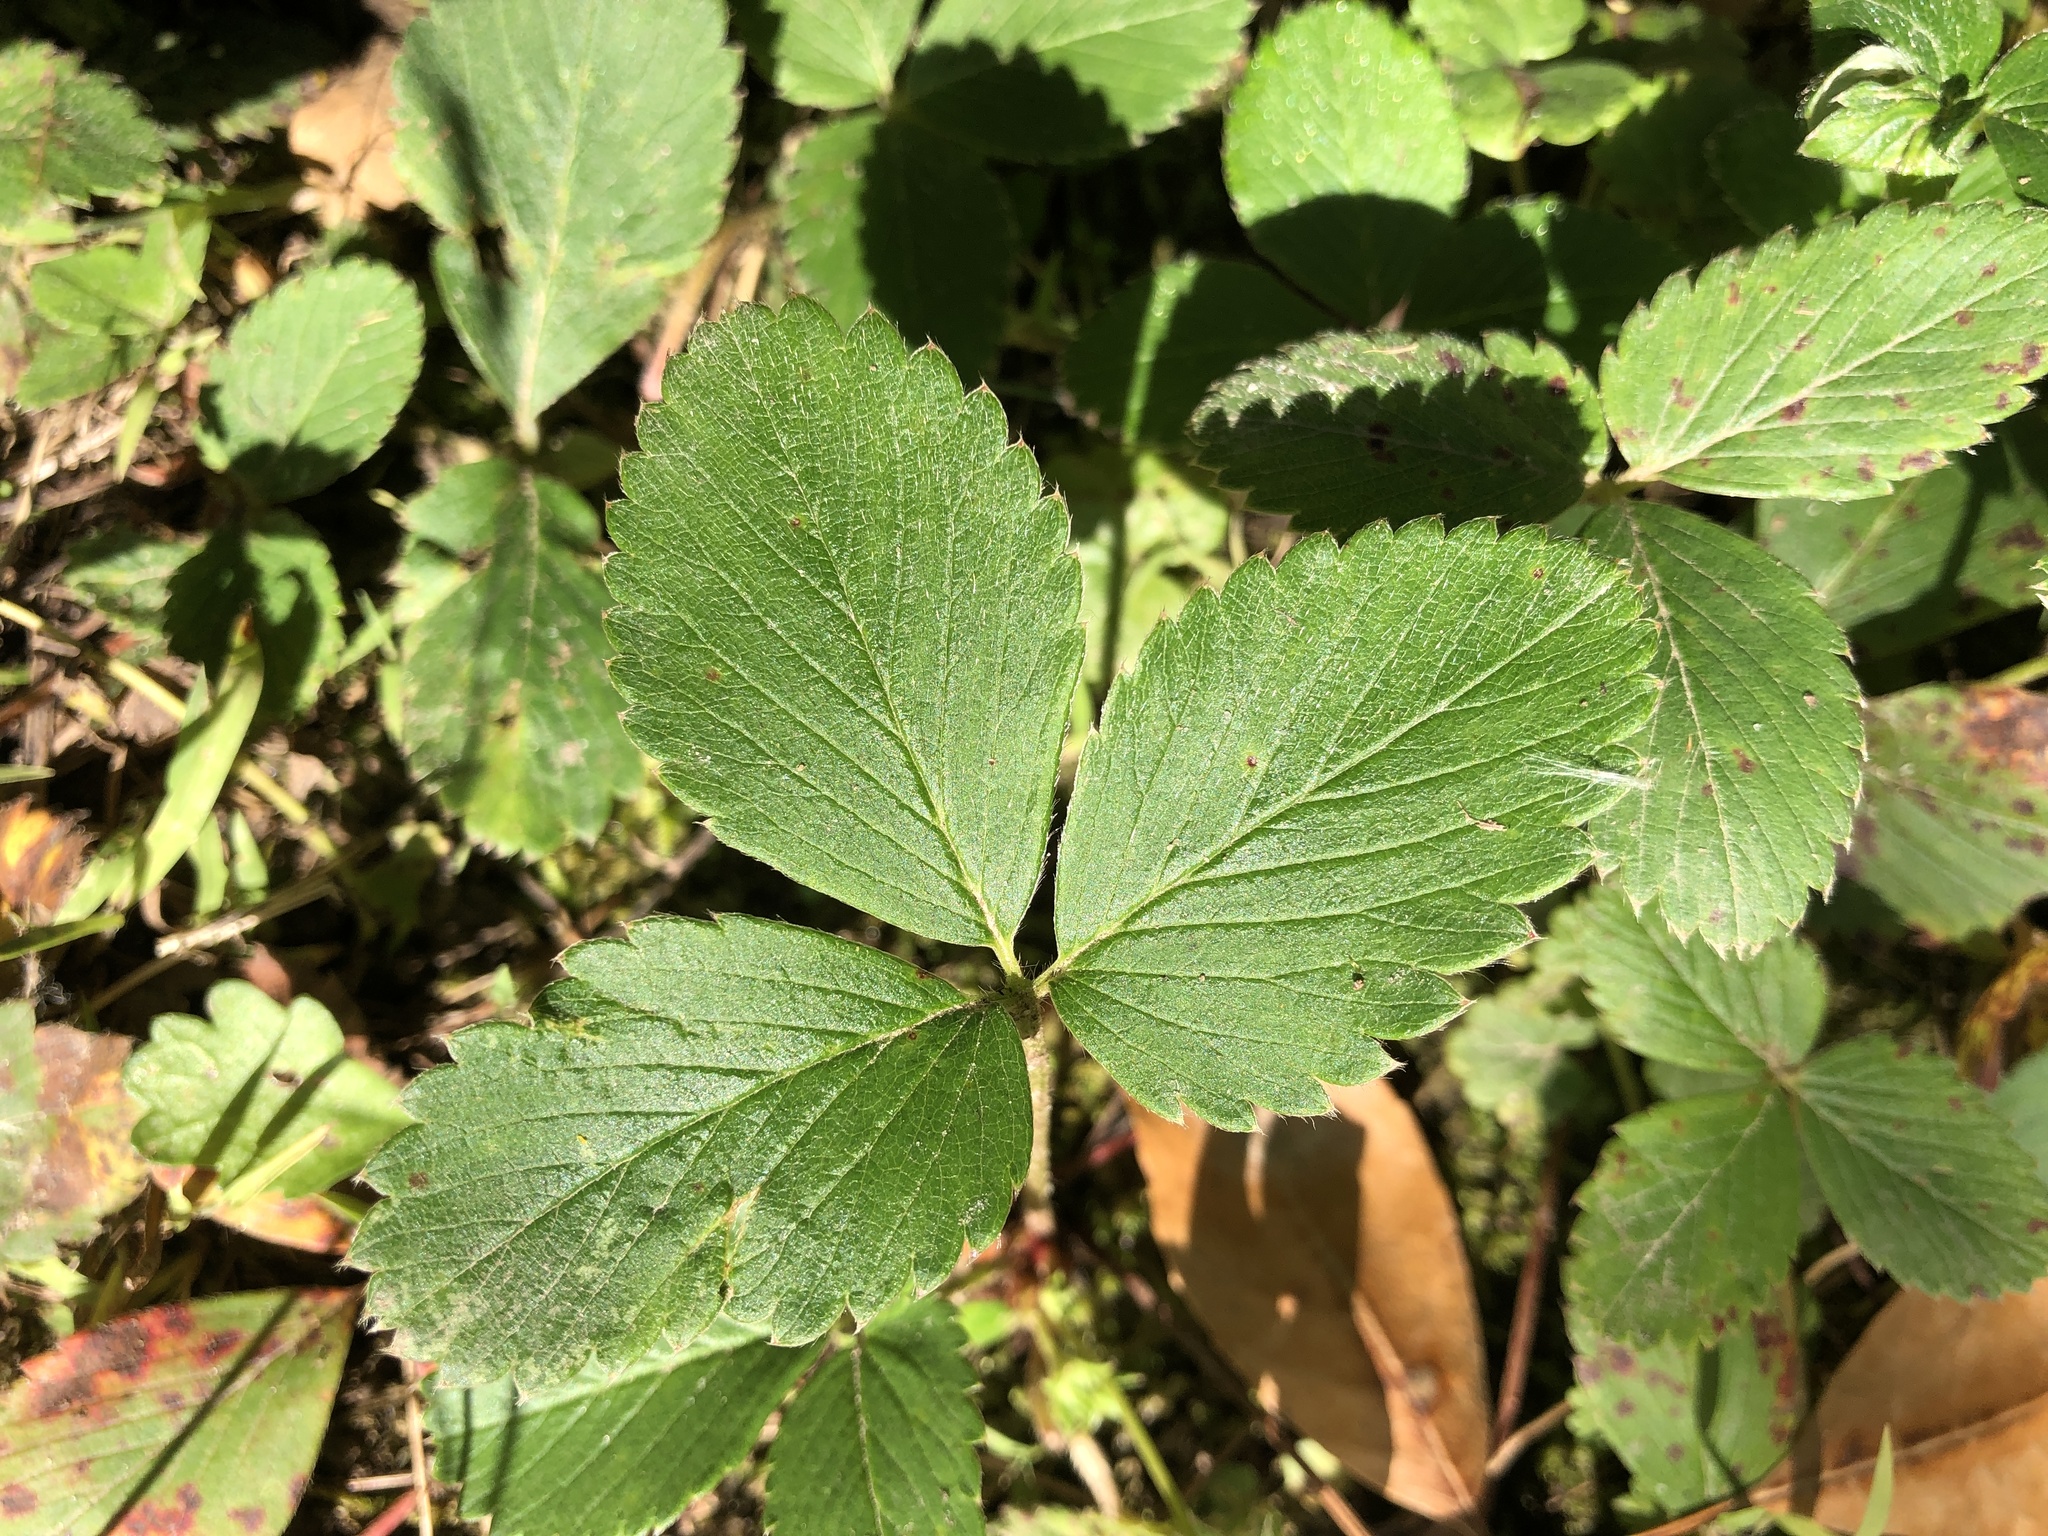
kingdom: Plantae
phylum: Tracheophyta
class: Magnoliopsida
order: Rosales
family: Rosaceae
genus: Fragaria
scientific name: Fragaria virginiana
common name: Thickleaved wild strawberry
